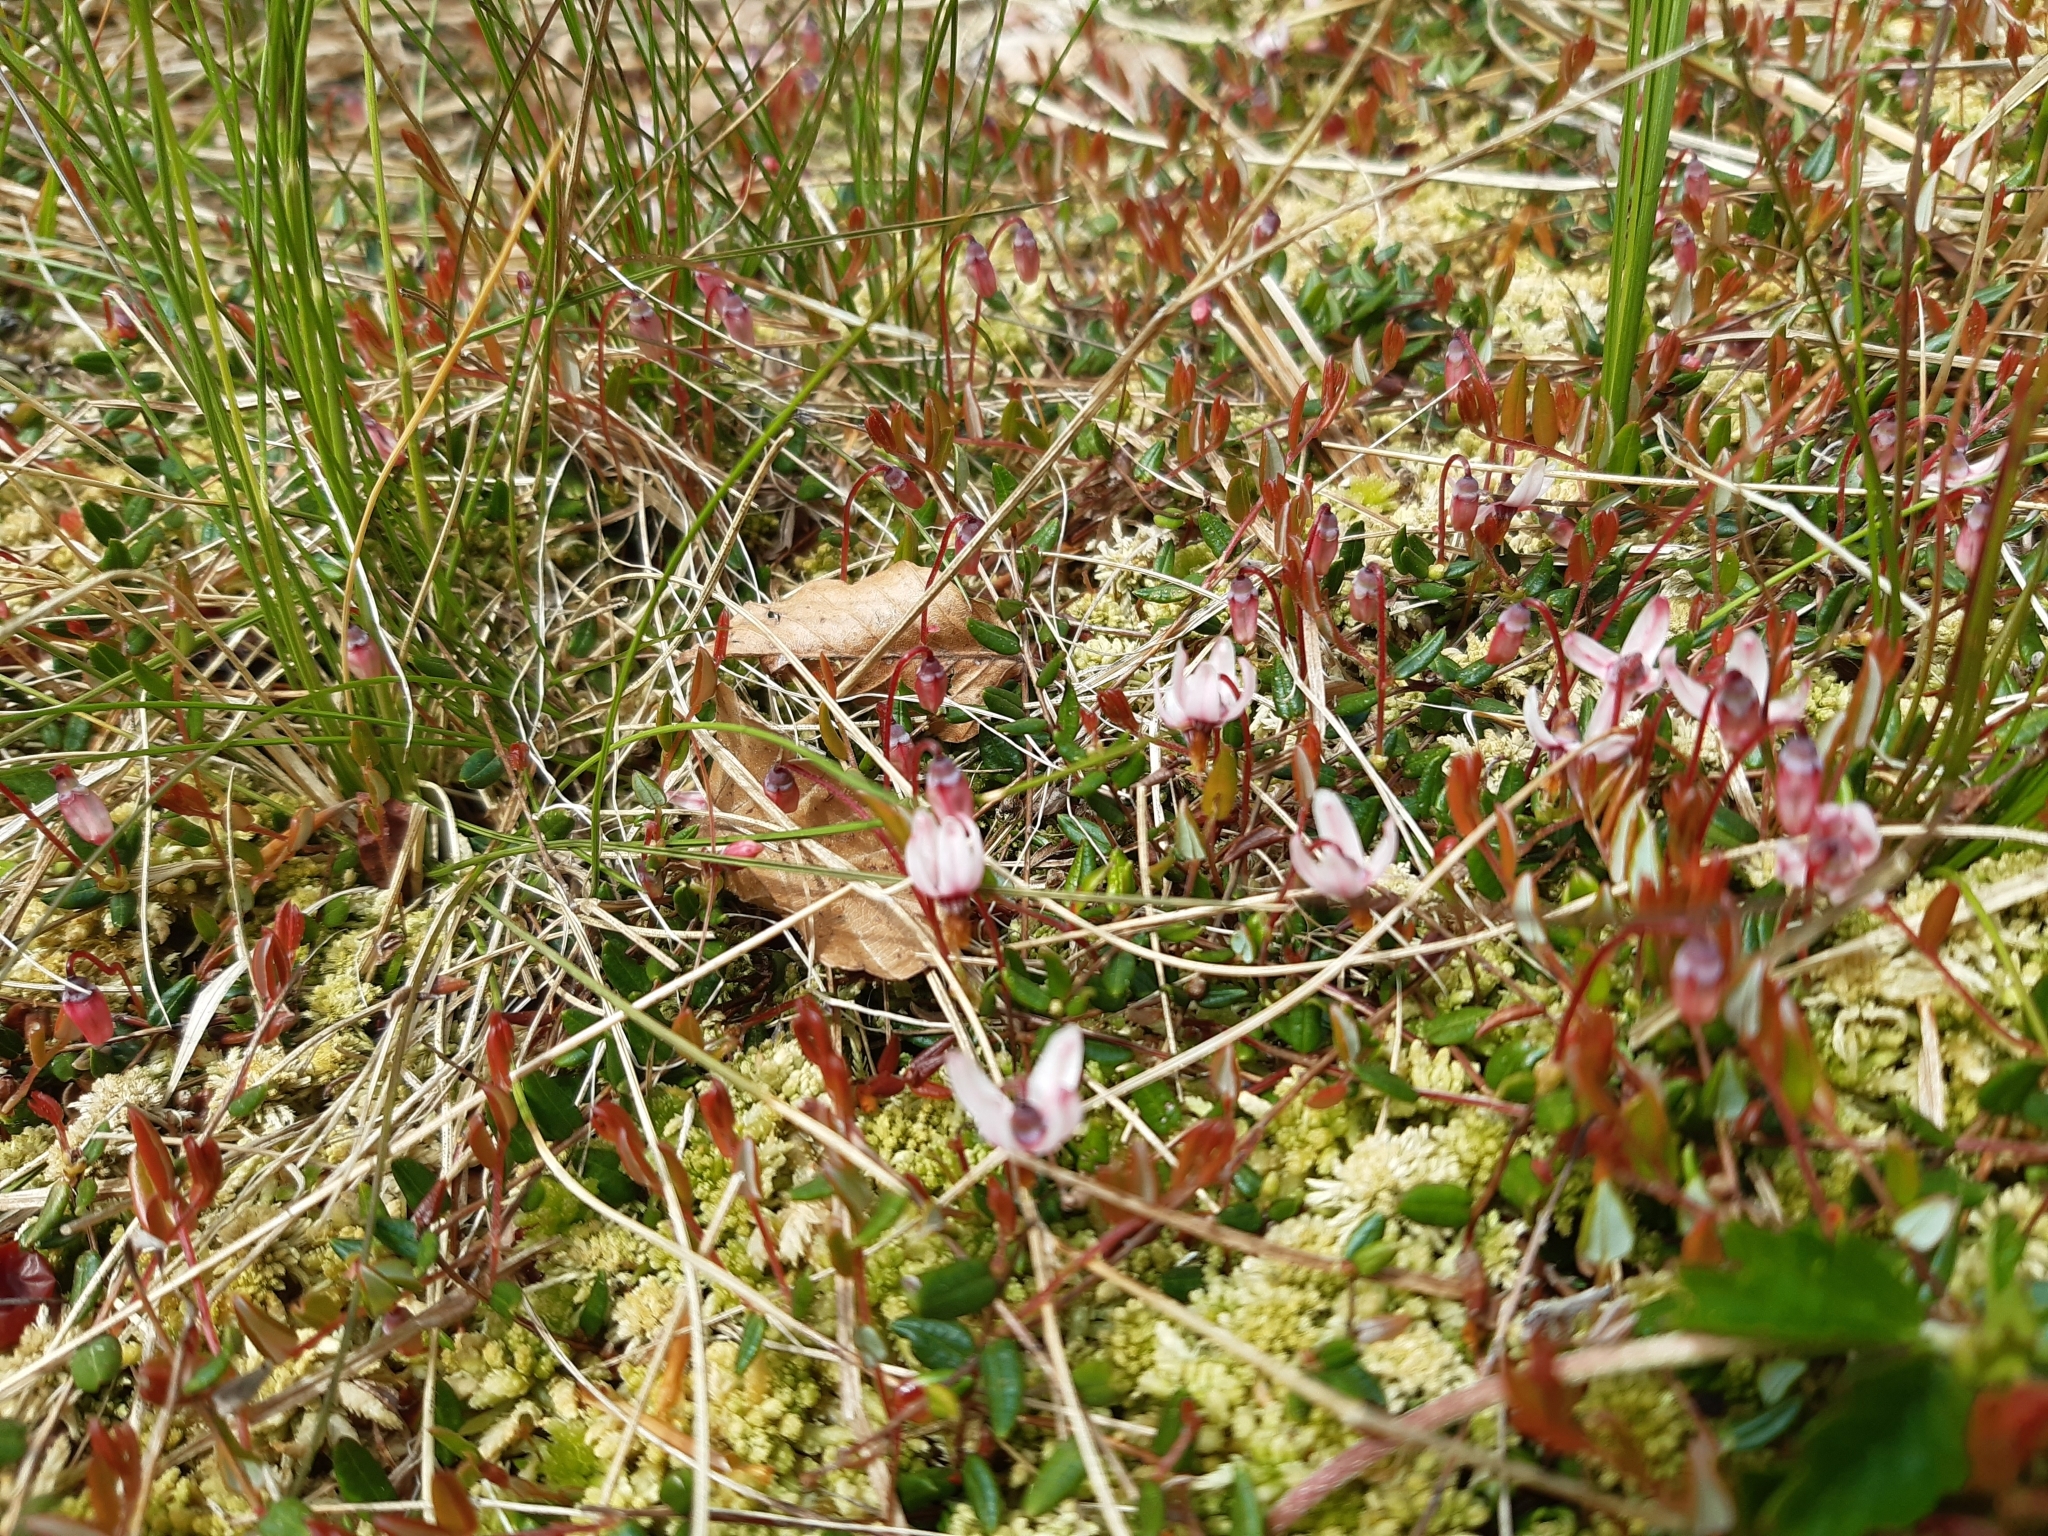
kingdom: Plantae
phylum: Tracheophyta
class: Magnoliopsida
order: Ericales
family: Ericaceae
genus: Vaccinium
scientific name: Vaccinium oxycoccos
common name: Cranberry
